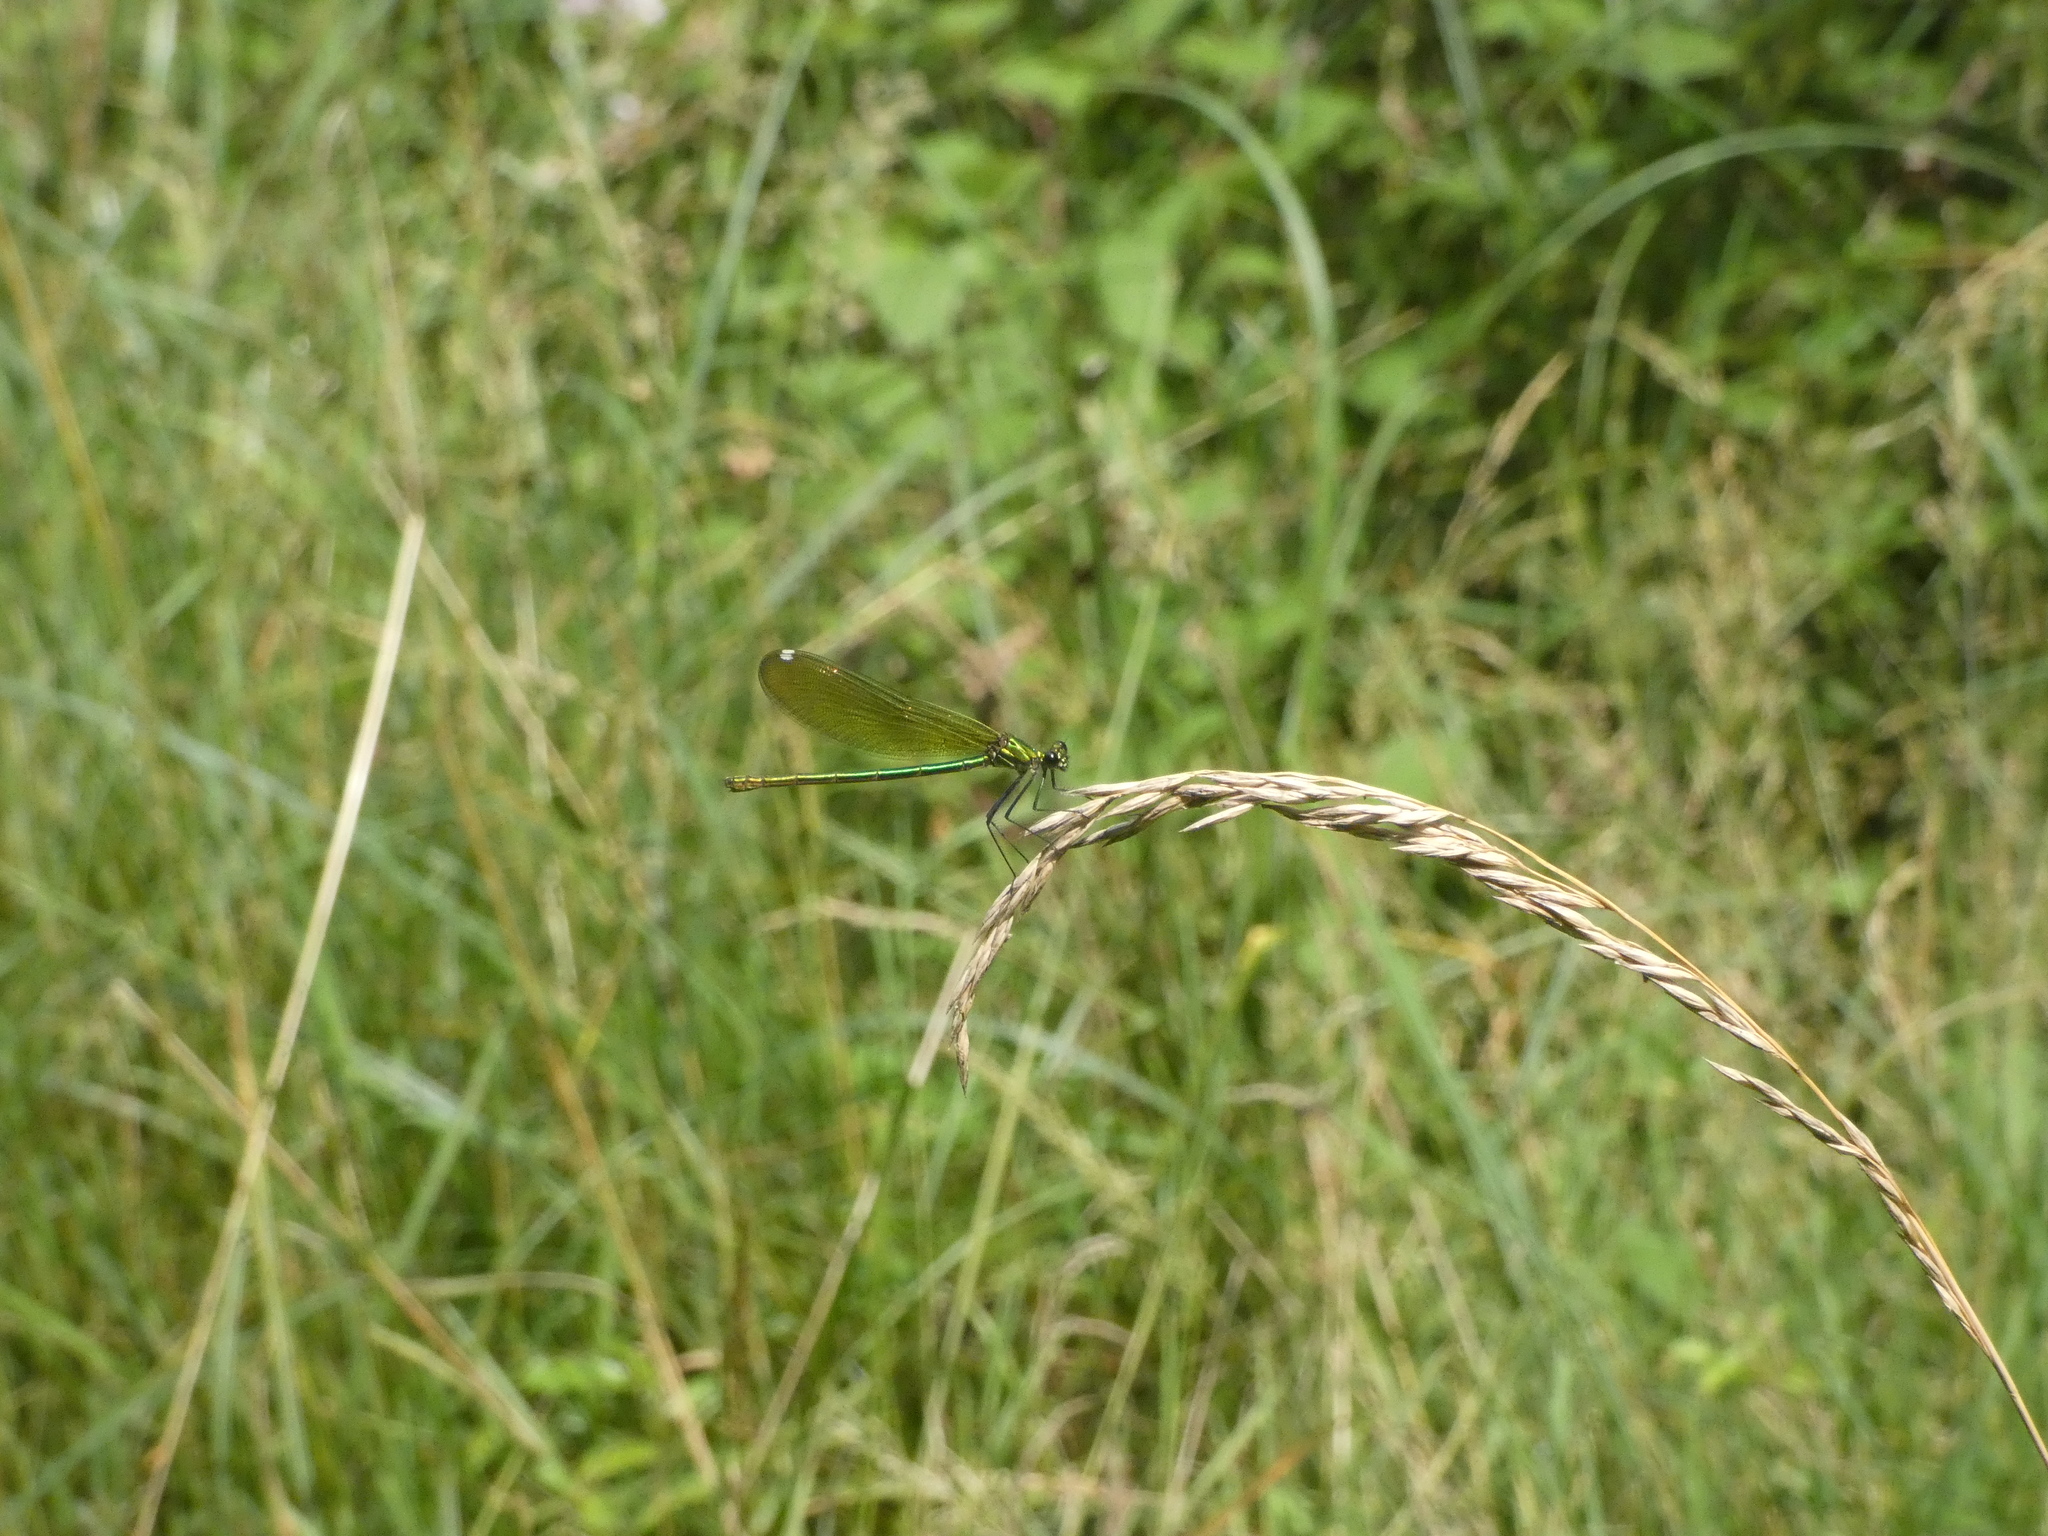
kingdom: Animalia
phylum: Arthropoda
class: Insecta
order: Odonata
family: Calopterygidae
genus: Calopteryx
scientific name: Calopteryx splendens
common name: Banded demoiselle
